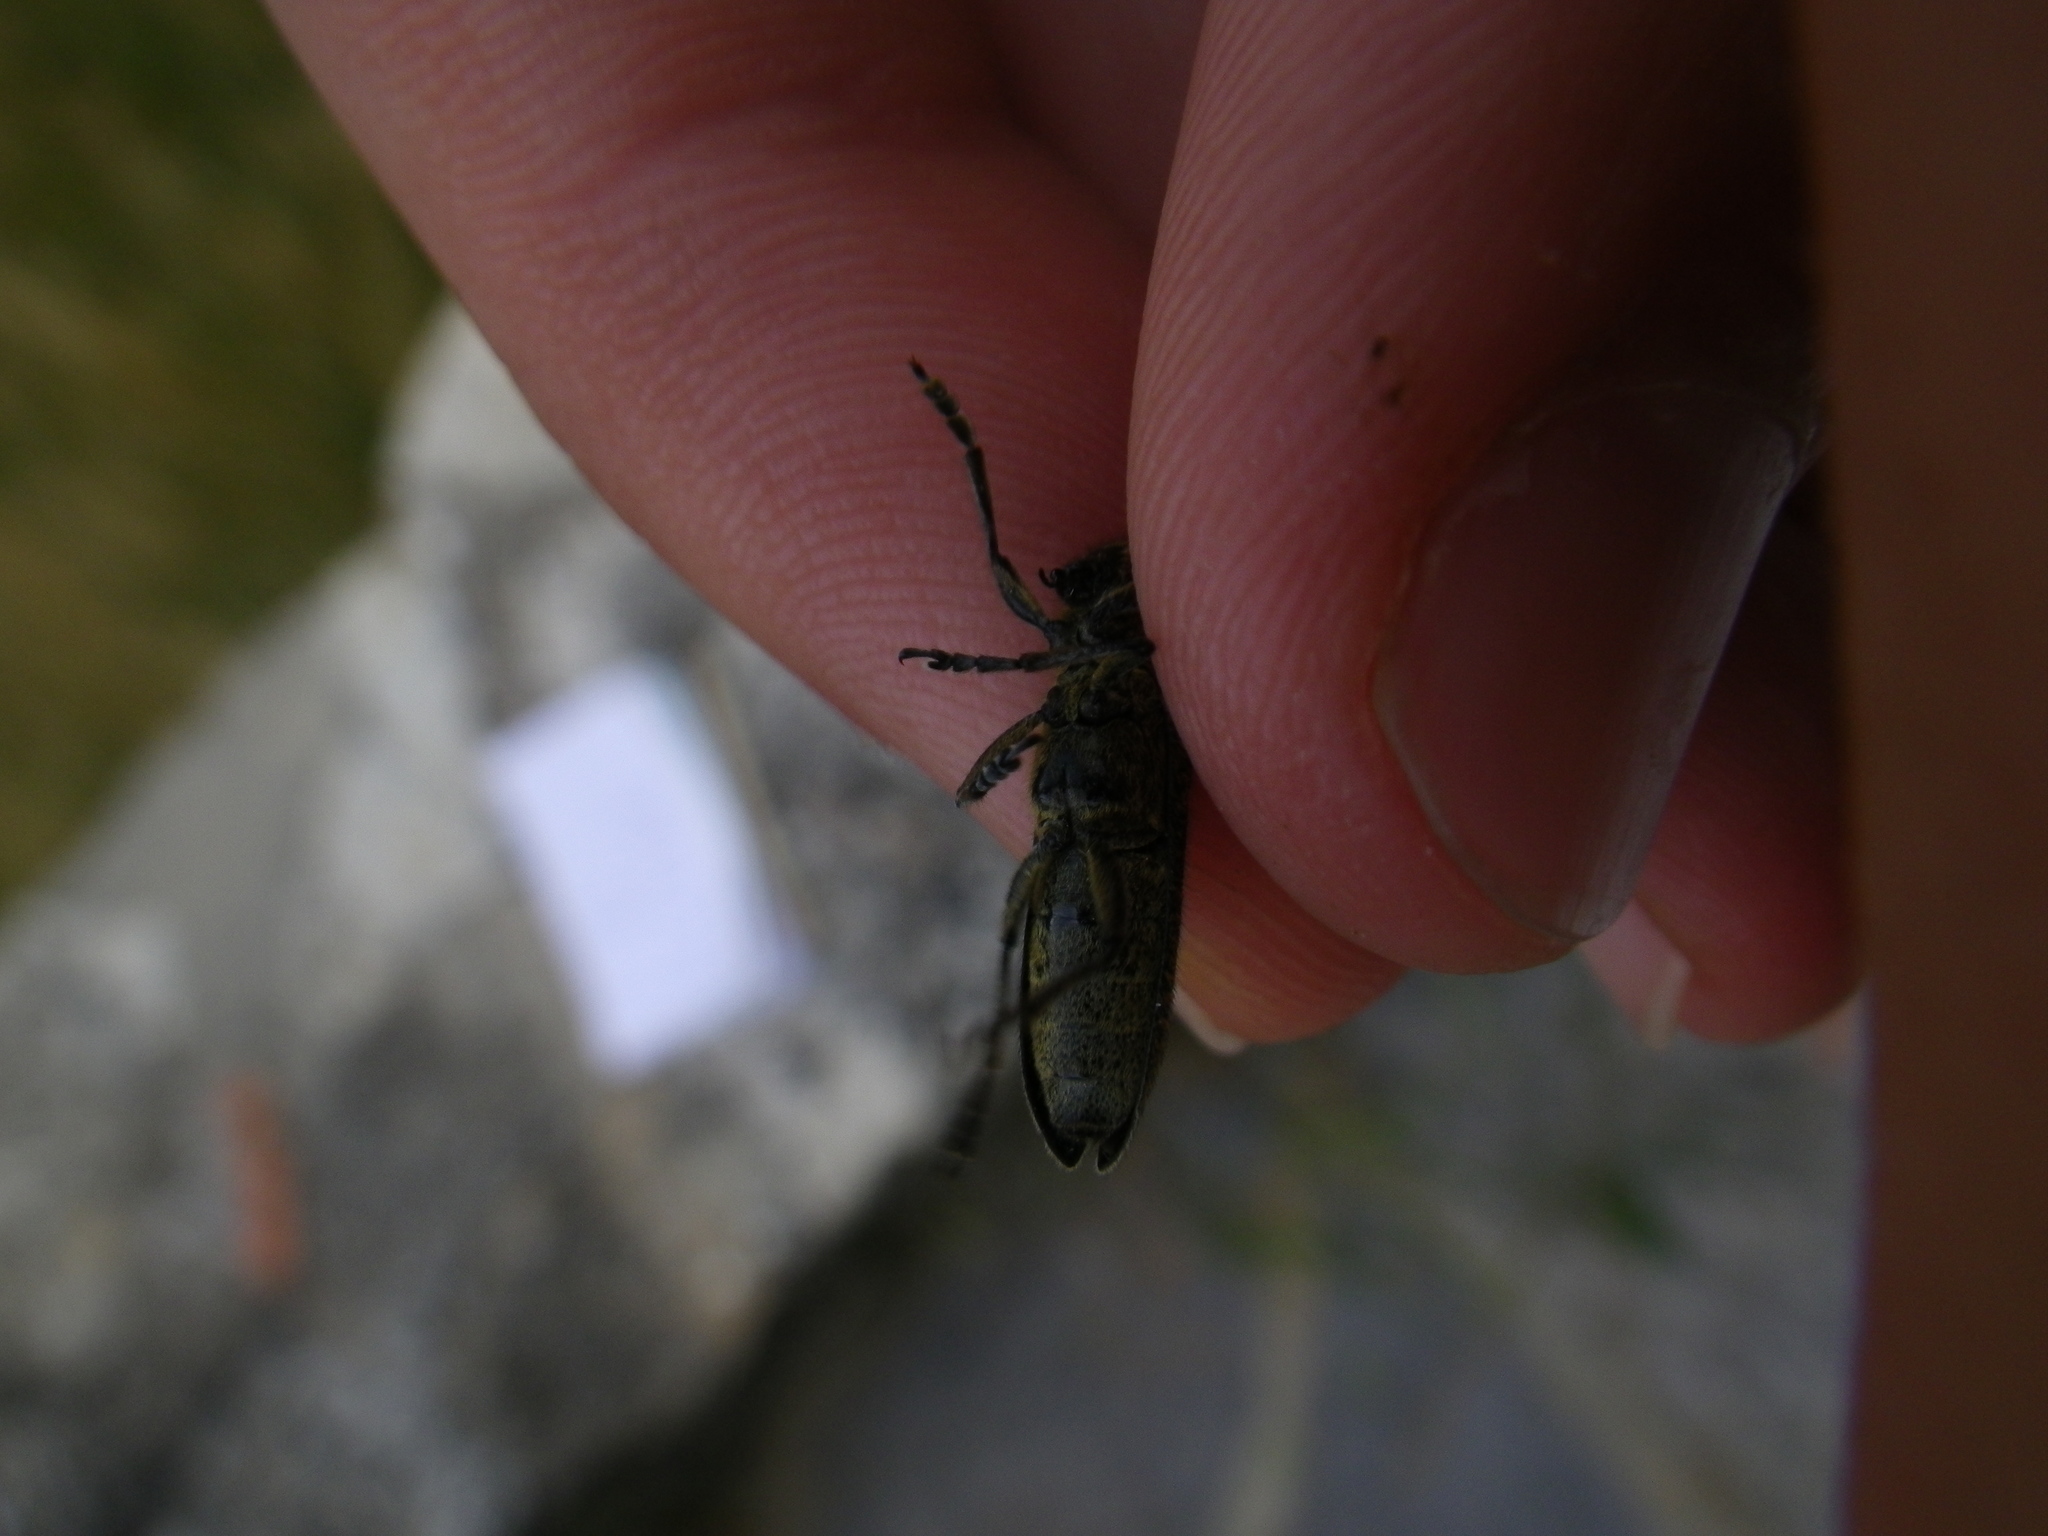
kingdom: Animalia
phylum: Arthropoda
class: Insecta
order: Coleoptera
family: Cerambycidae
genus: Agapanthia
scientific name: Agapanthia villosoviridescens
